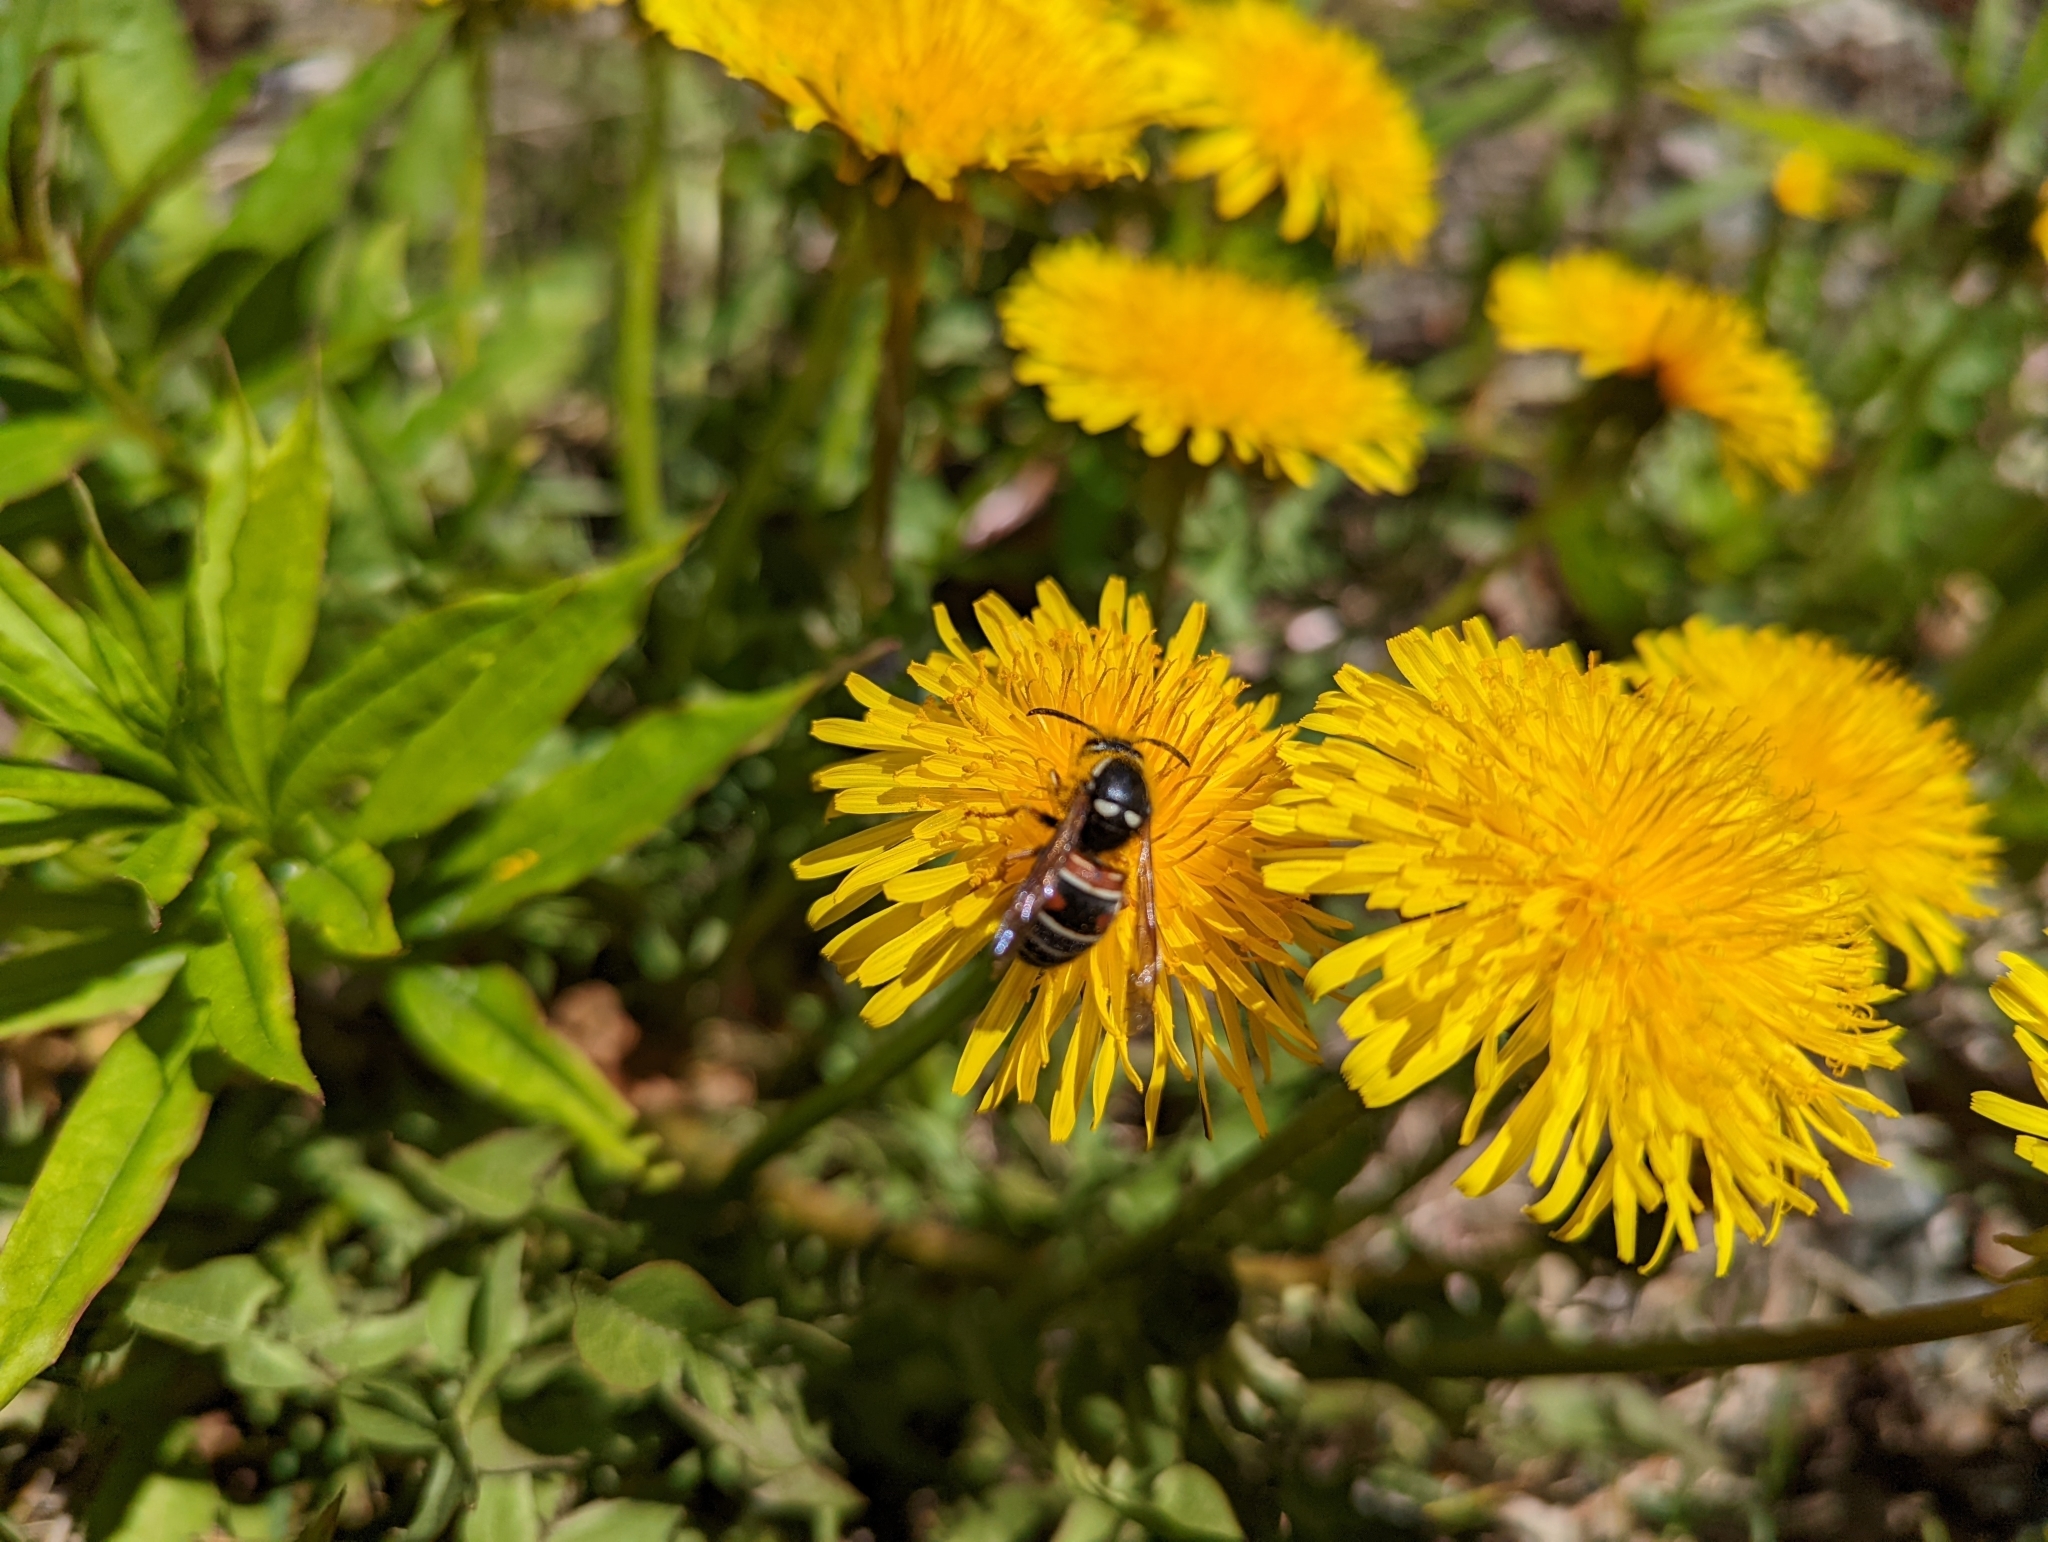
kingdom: Animalia
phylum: Arthropoda
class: Insecta
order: Hymenoptera
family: Vespidae
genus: Vespula
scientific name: Vespula intermedia
